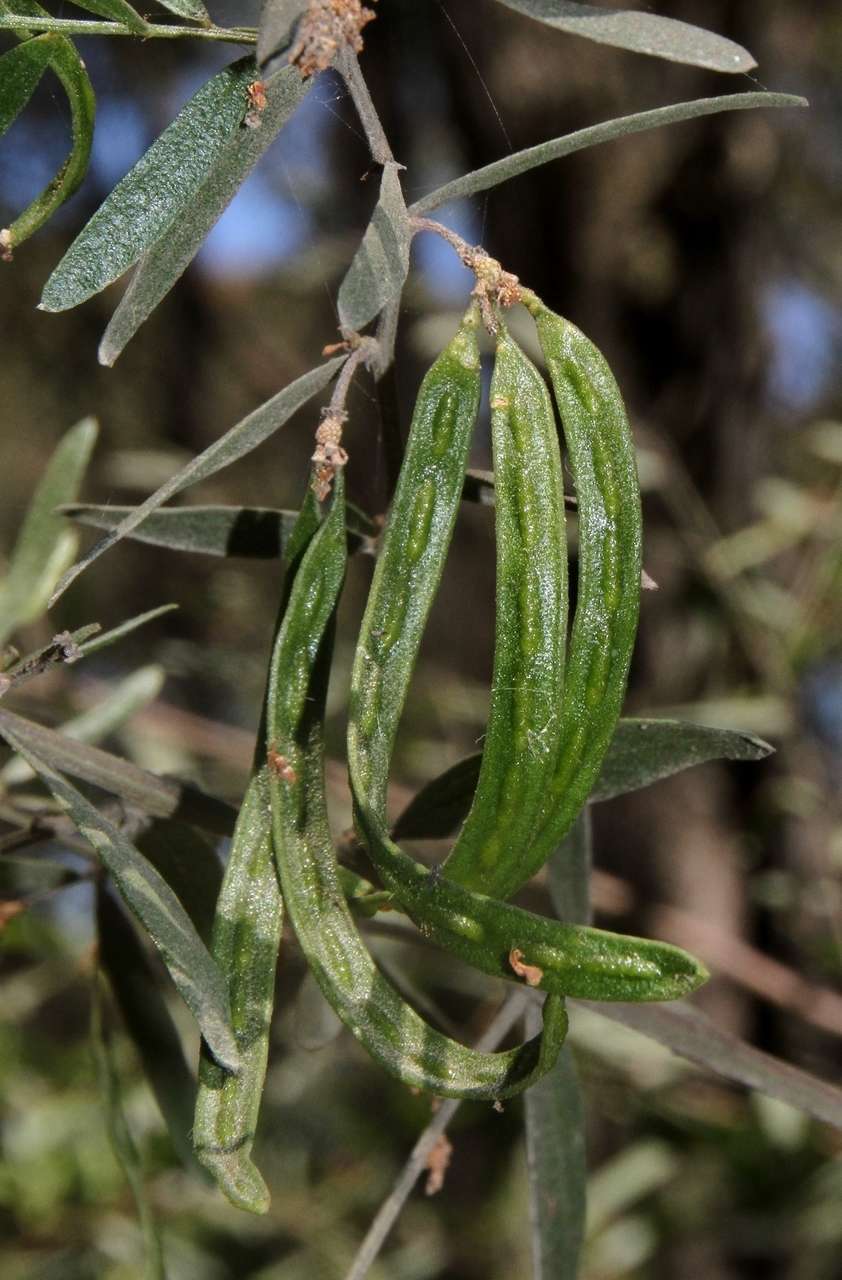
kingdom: Plantae
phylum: Tracheophyta
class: Magnoliopsida
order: Fabales
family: Fabaceae
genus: Acacia
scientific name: Acacia verniciflua
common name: Varnish wattle
